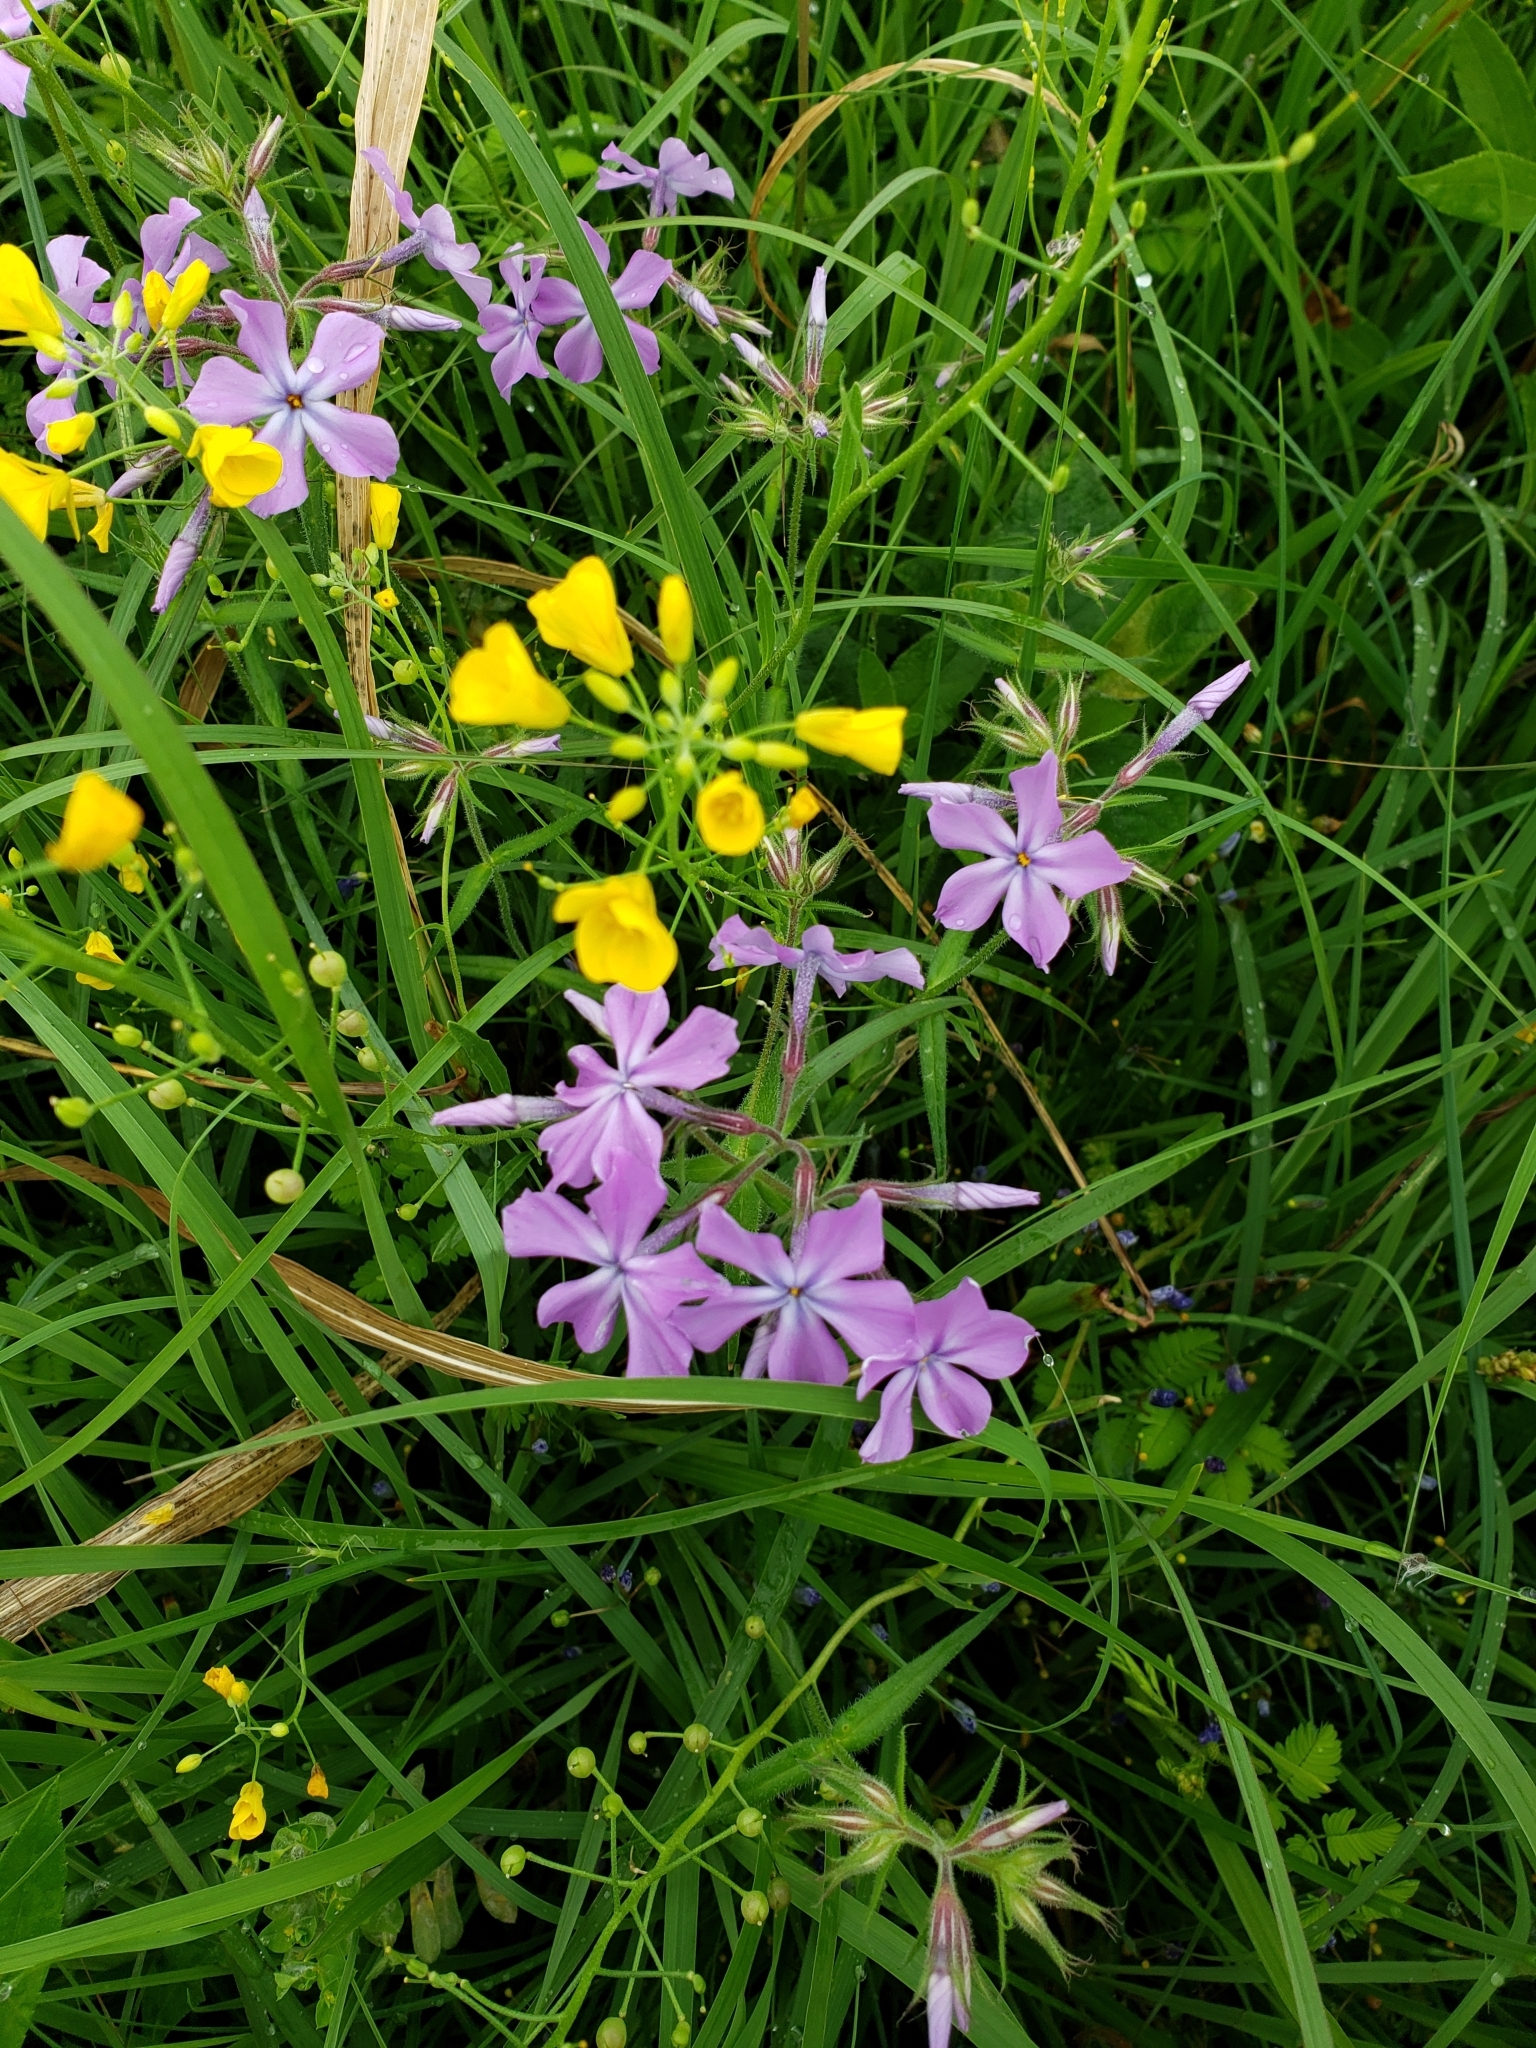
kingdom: Plantae
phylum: Tracheophyta
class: Magnoliopsida
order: Ericales
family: Polemoniaceae
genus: Phlox
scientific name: Phlox pilosa
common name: Prairie phlox
